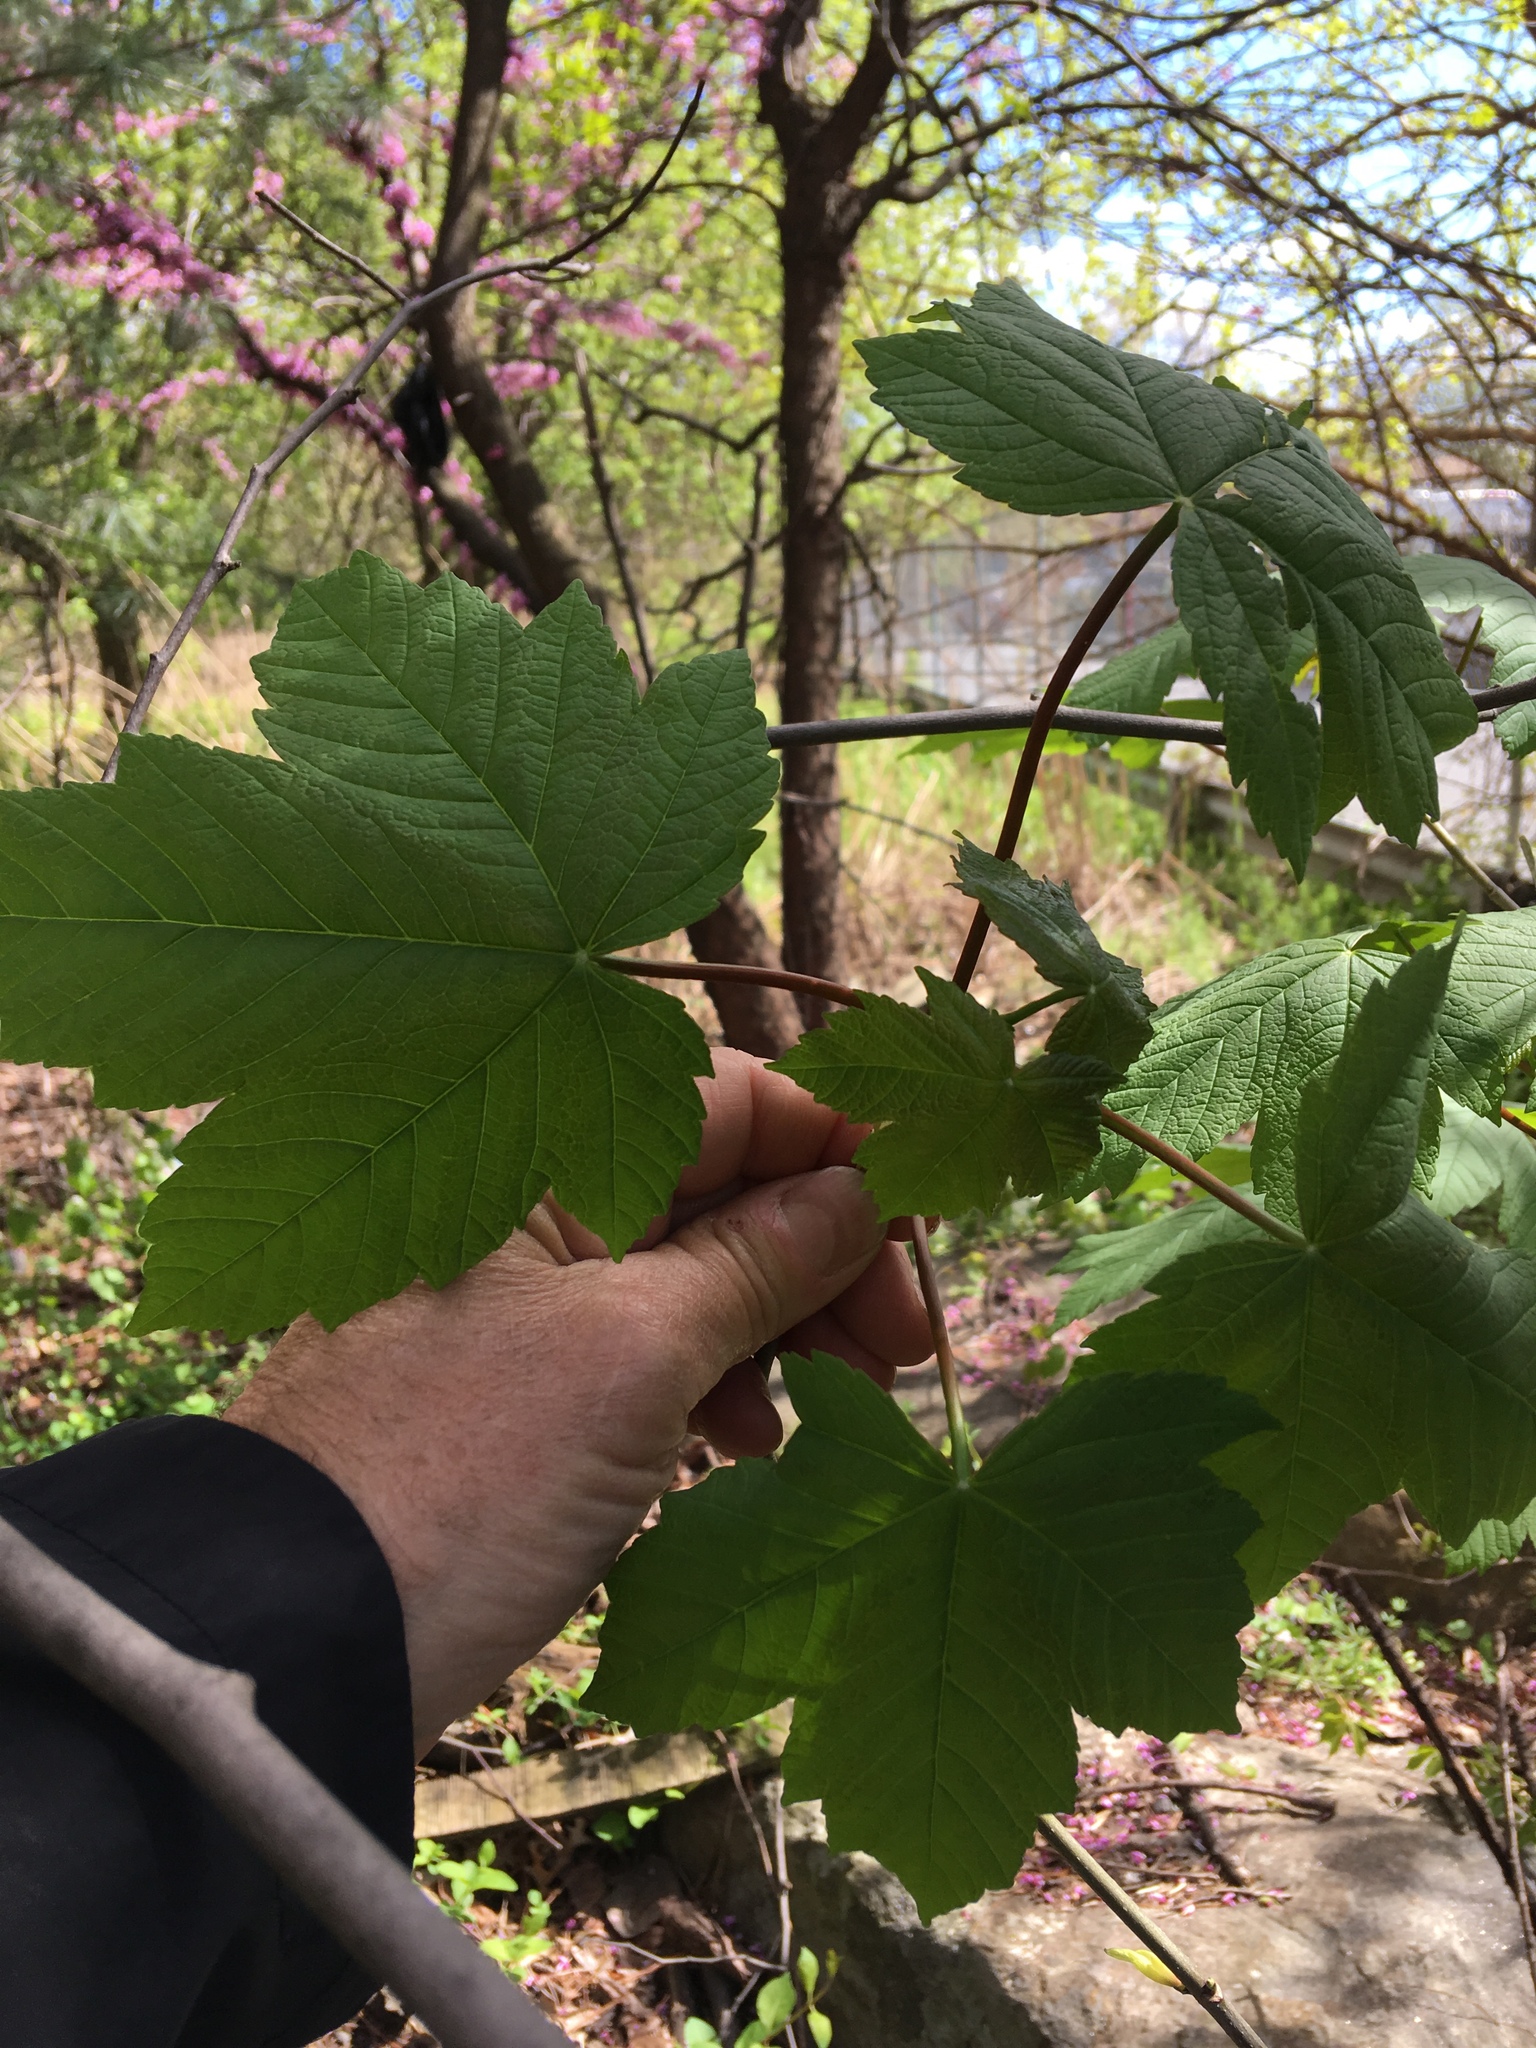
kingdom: Plantae
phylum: Tracheophyta
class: Magnoliopsida
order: Sapindales
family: Sapindaceae
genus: Acer
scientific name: Acer pseudoplatanus
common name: Sycamore
